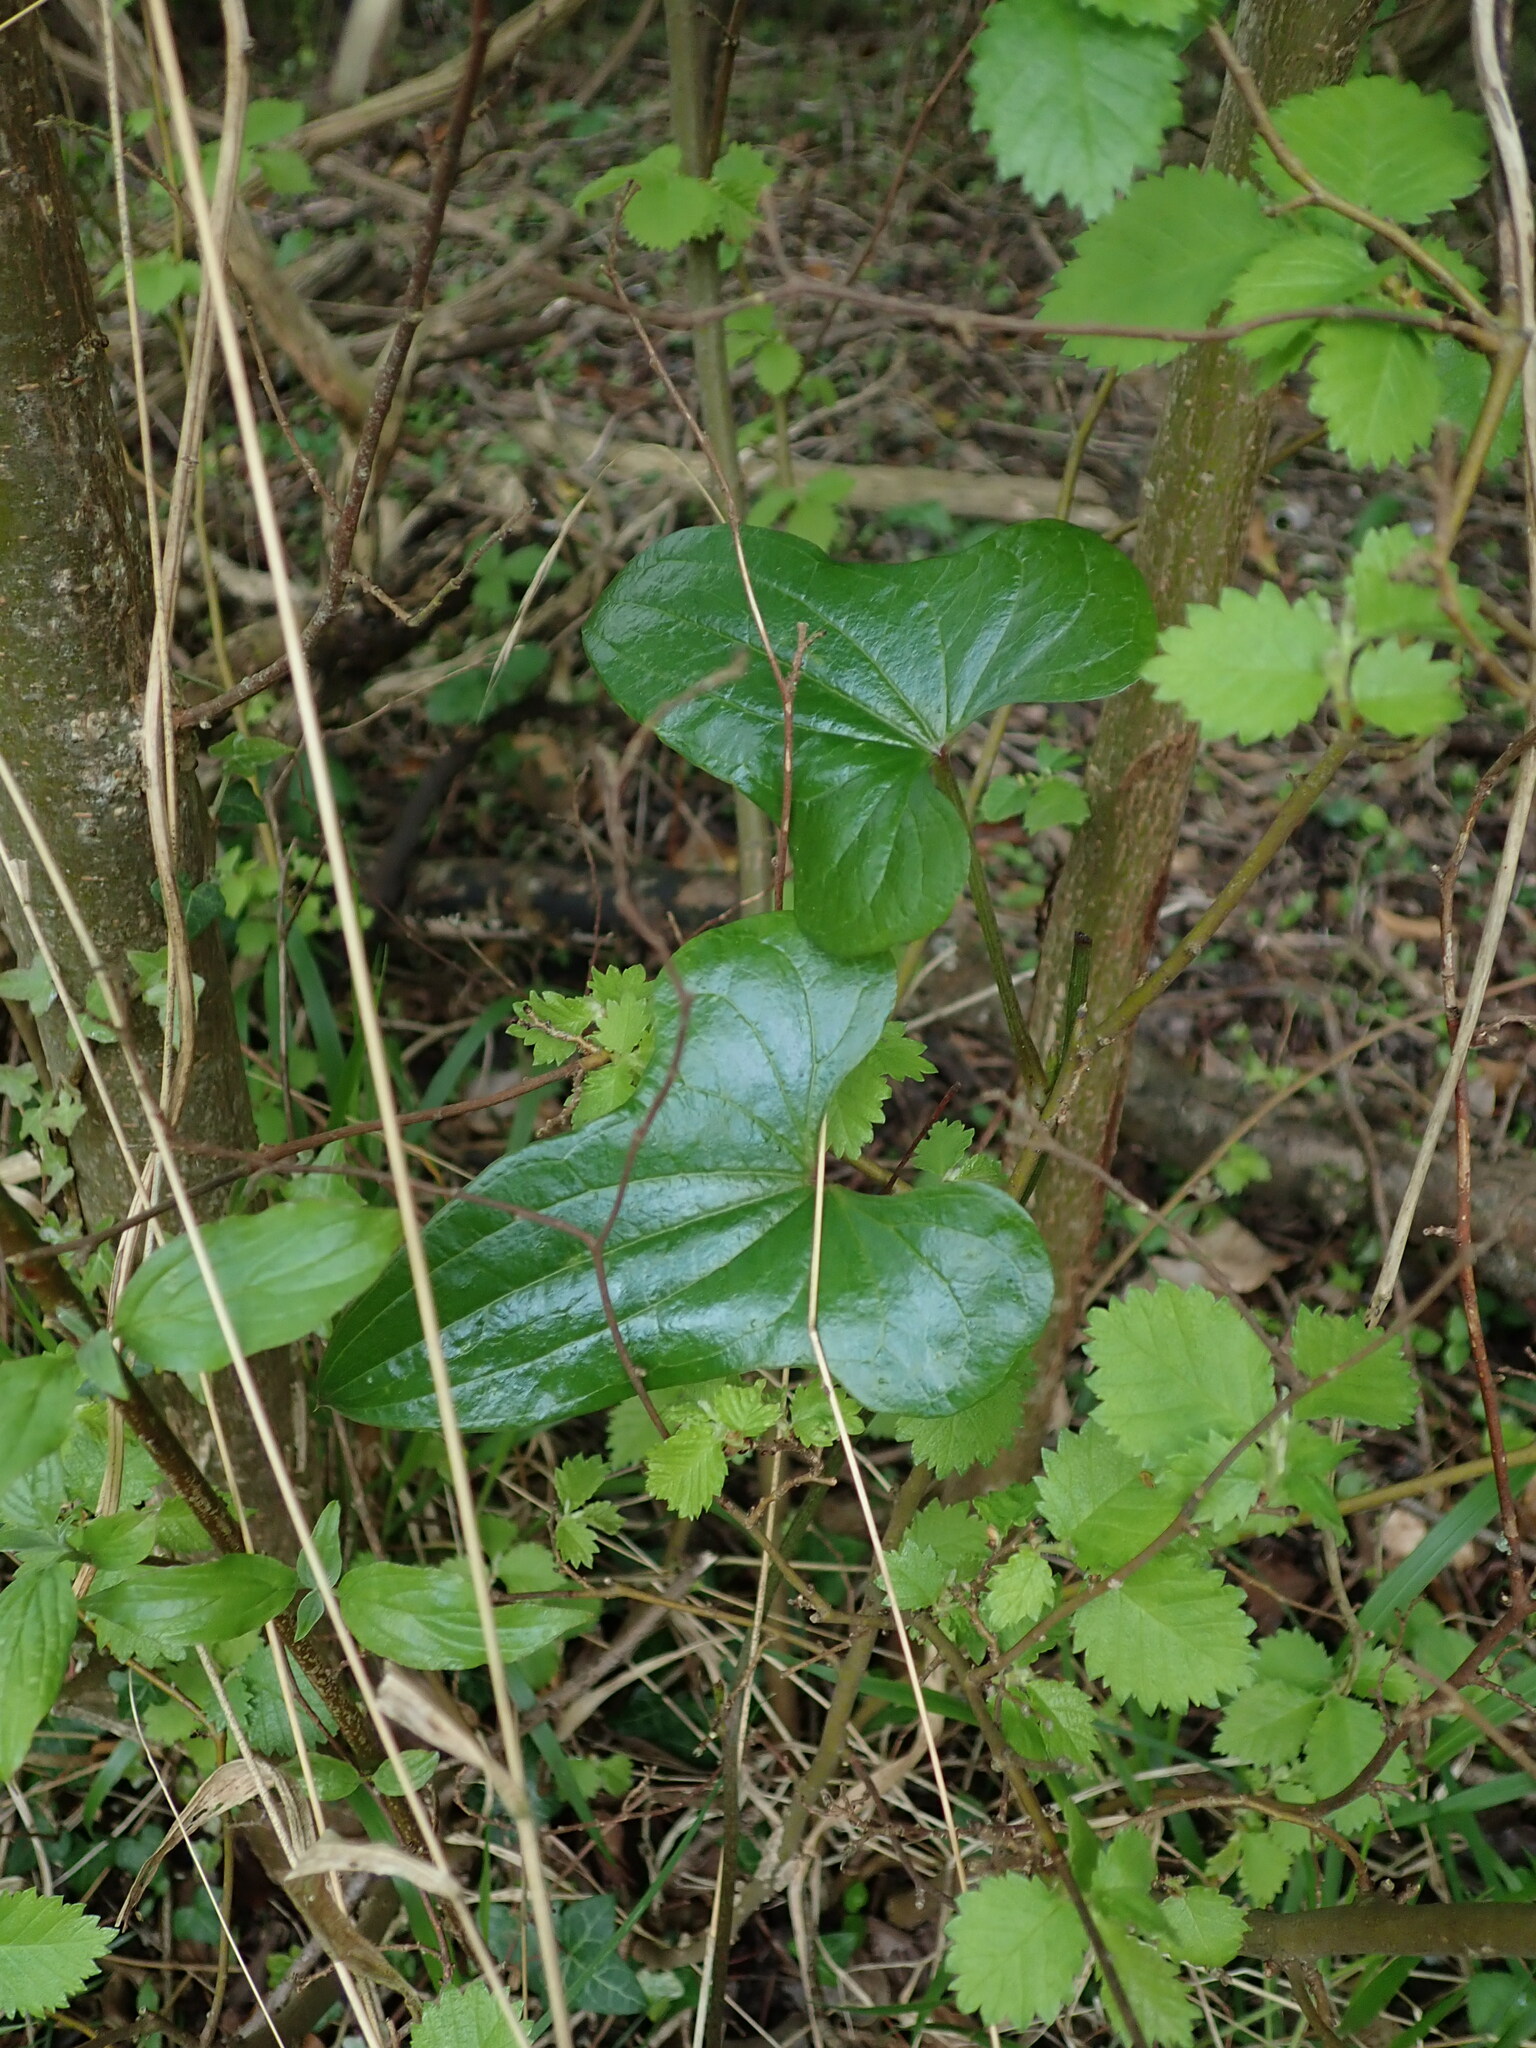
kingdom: Plantae
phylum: Tracheophyta
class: Liliopsida
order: Dioscoreales
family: Dioscoreaceae
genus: Dioscorea
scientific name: Dioscorea communis
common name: Black-bindweed
